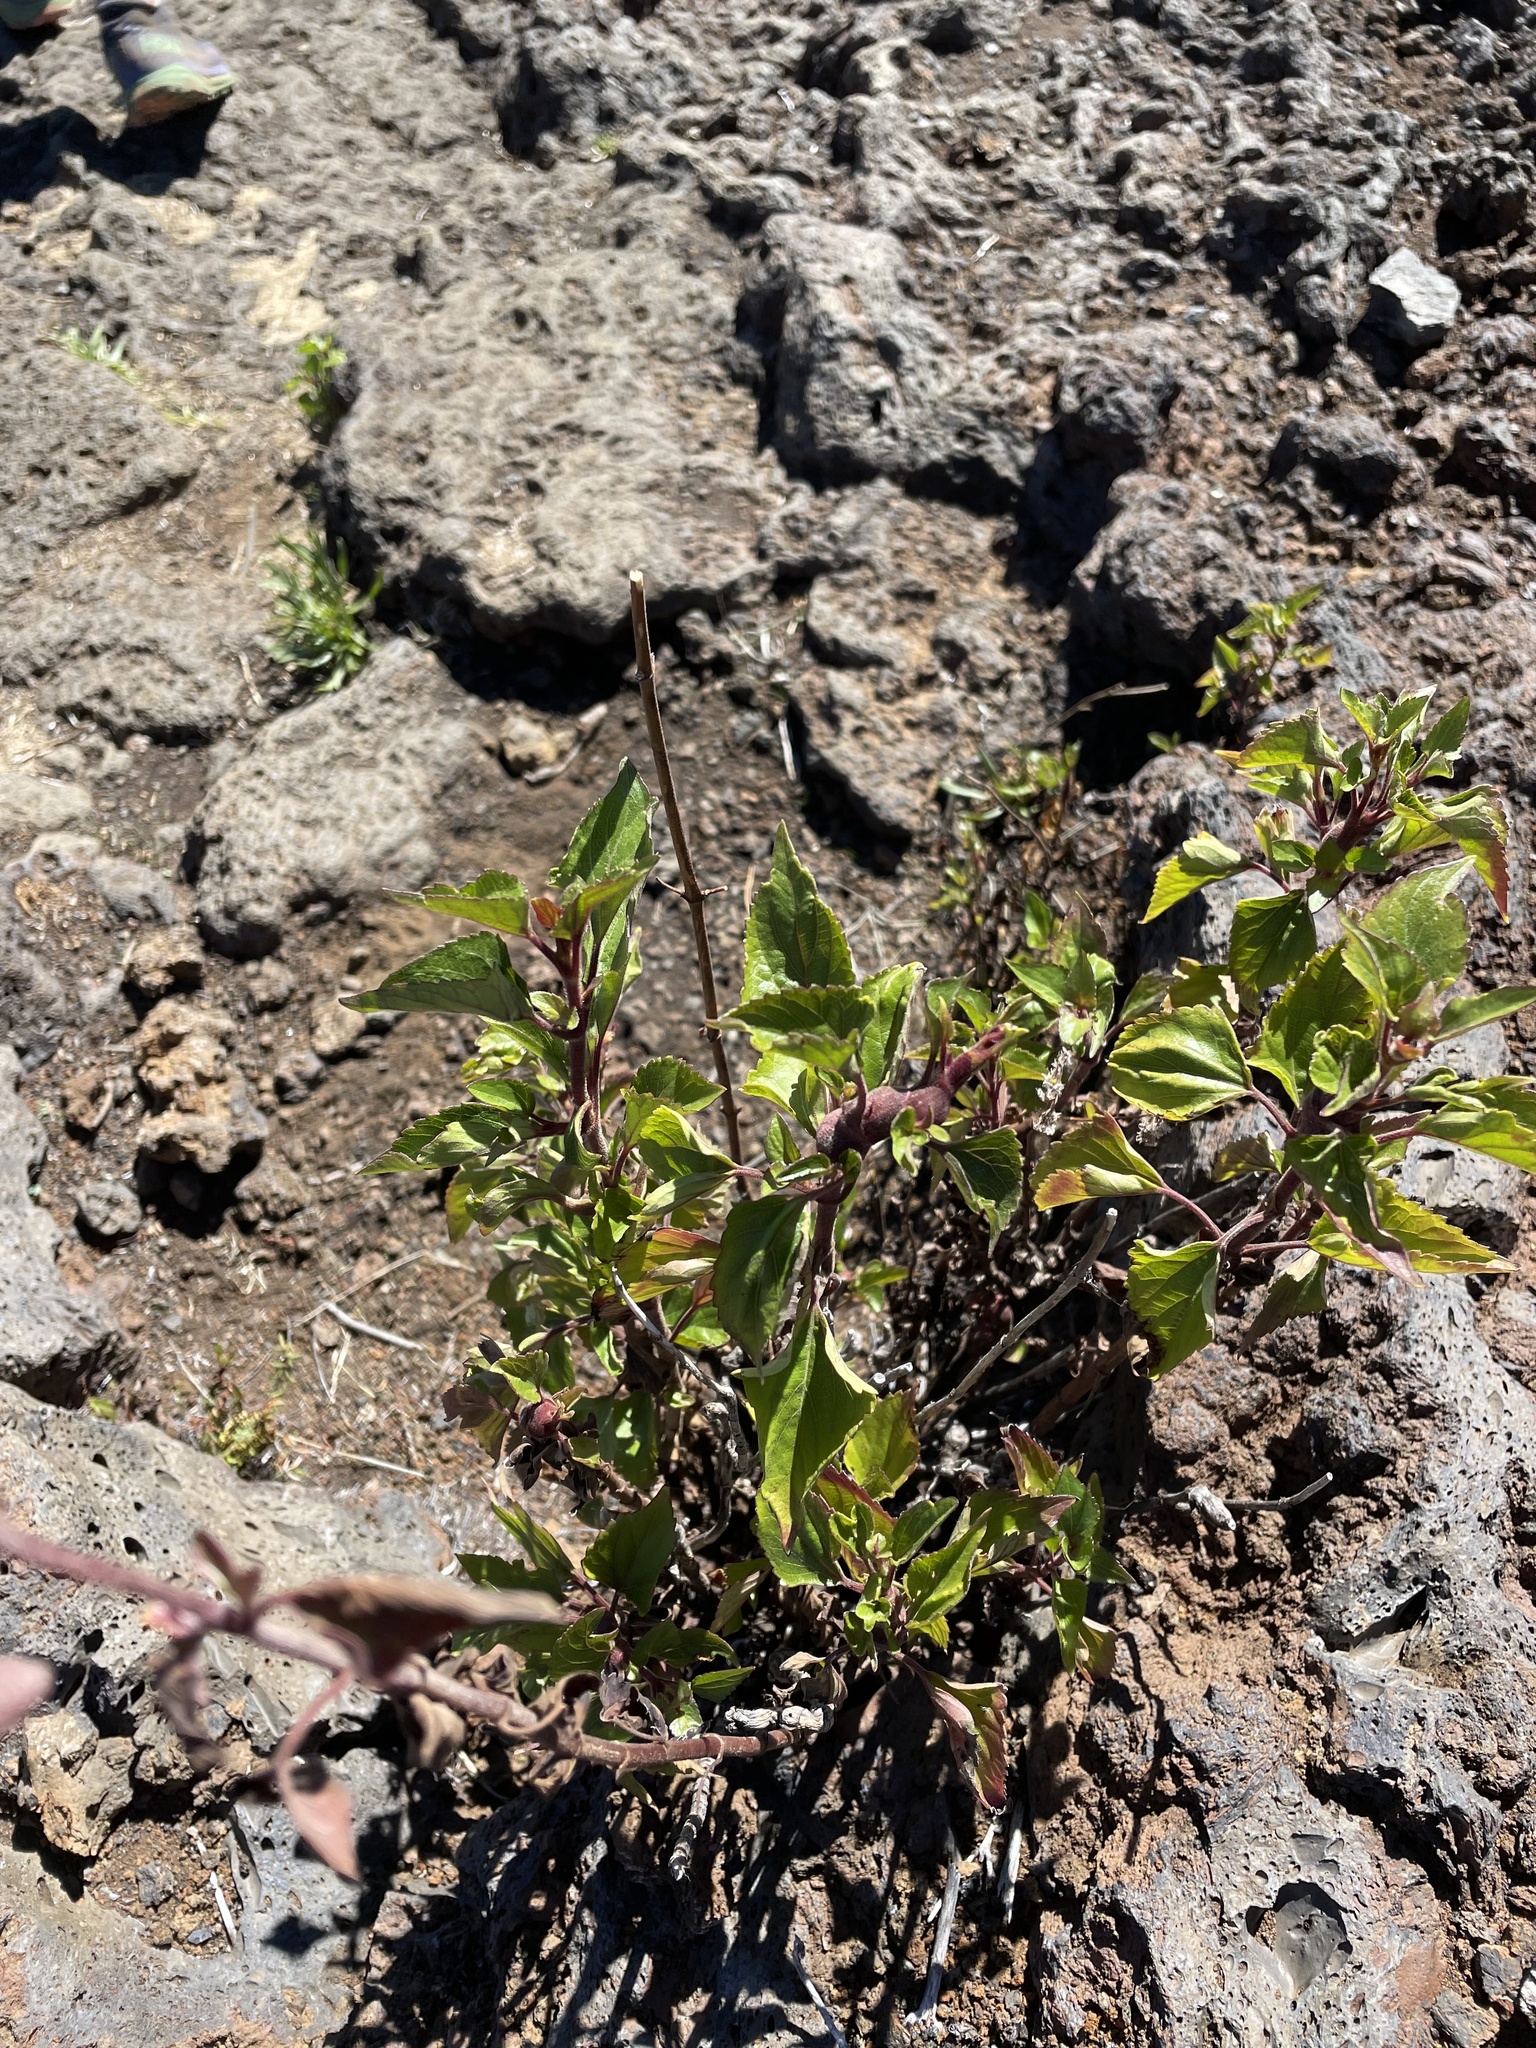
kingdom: Plantae
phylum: Tracheophyta
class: Magnoliopsida
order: Asterales
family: Asteraceae
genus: Ageratina
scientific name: Ageratina adenophora
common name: Sticky snakeroot
